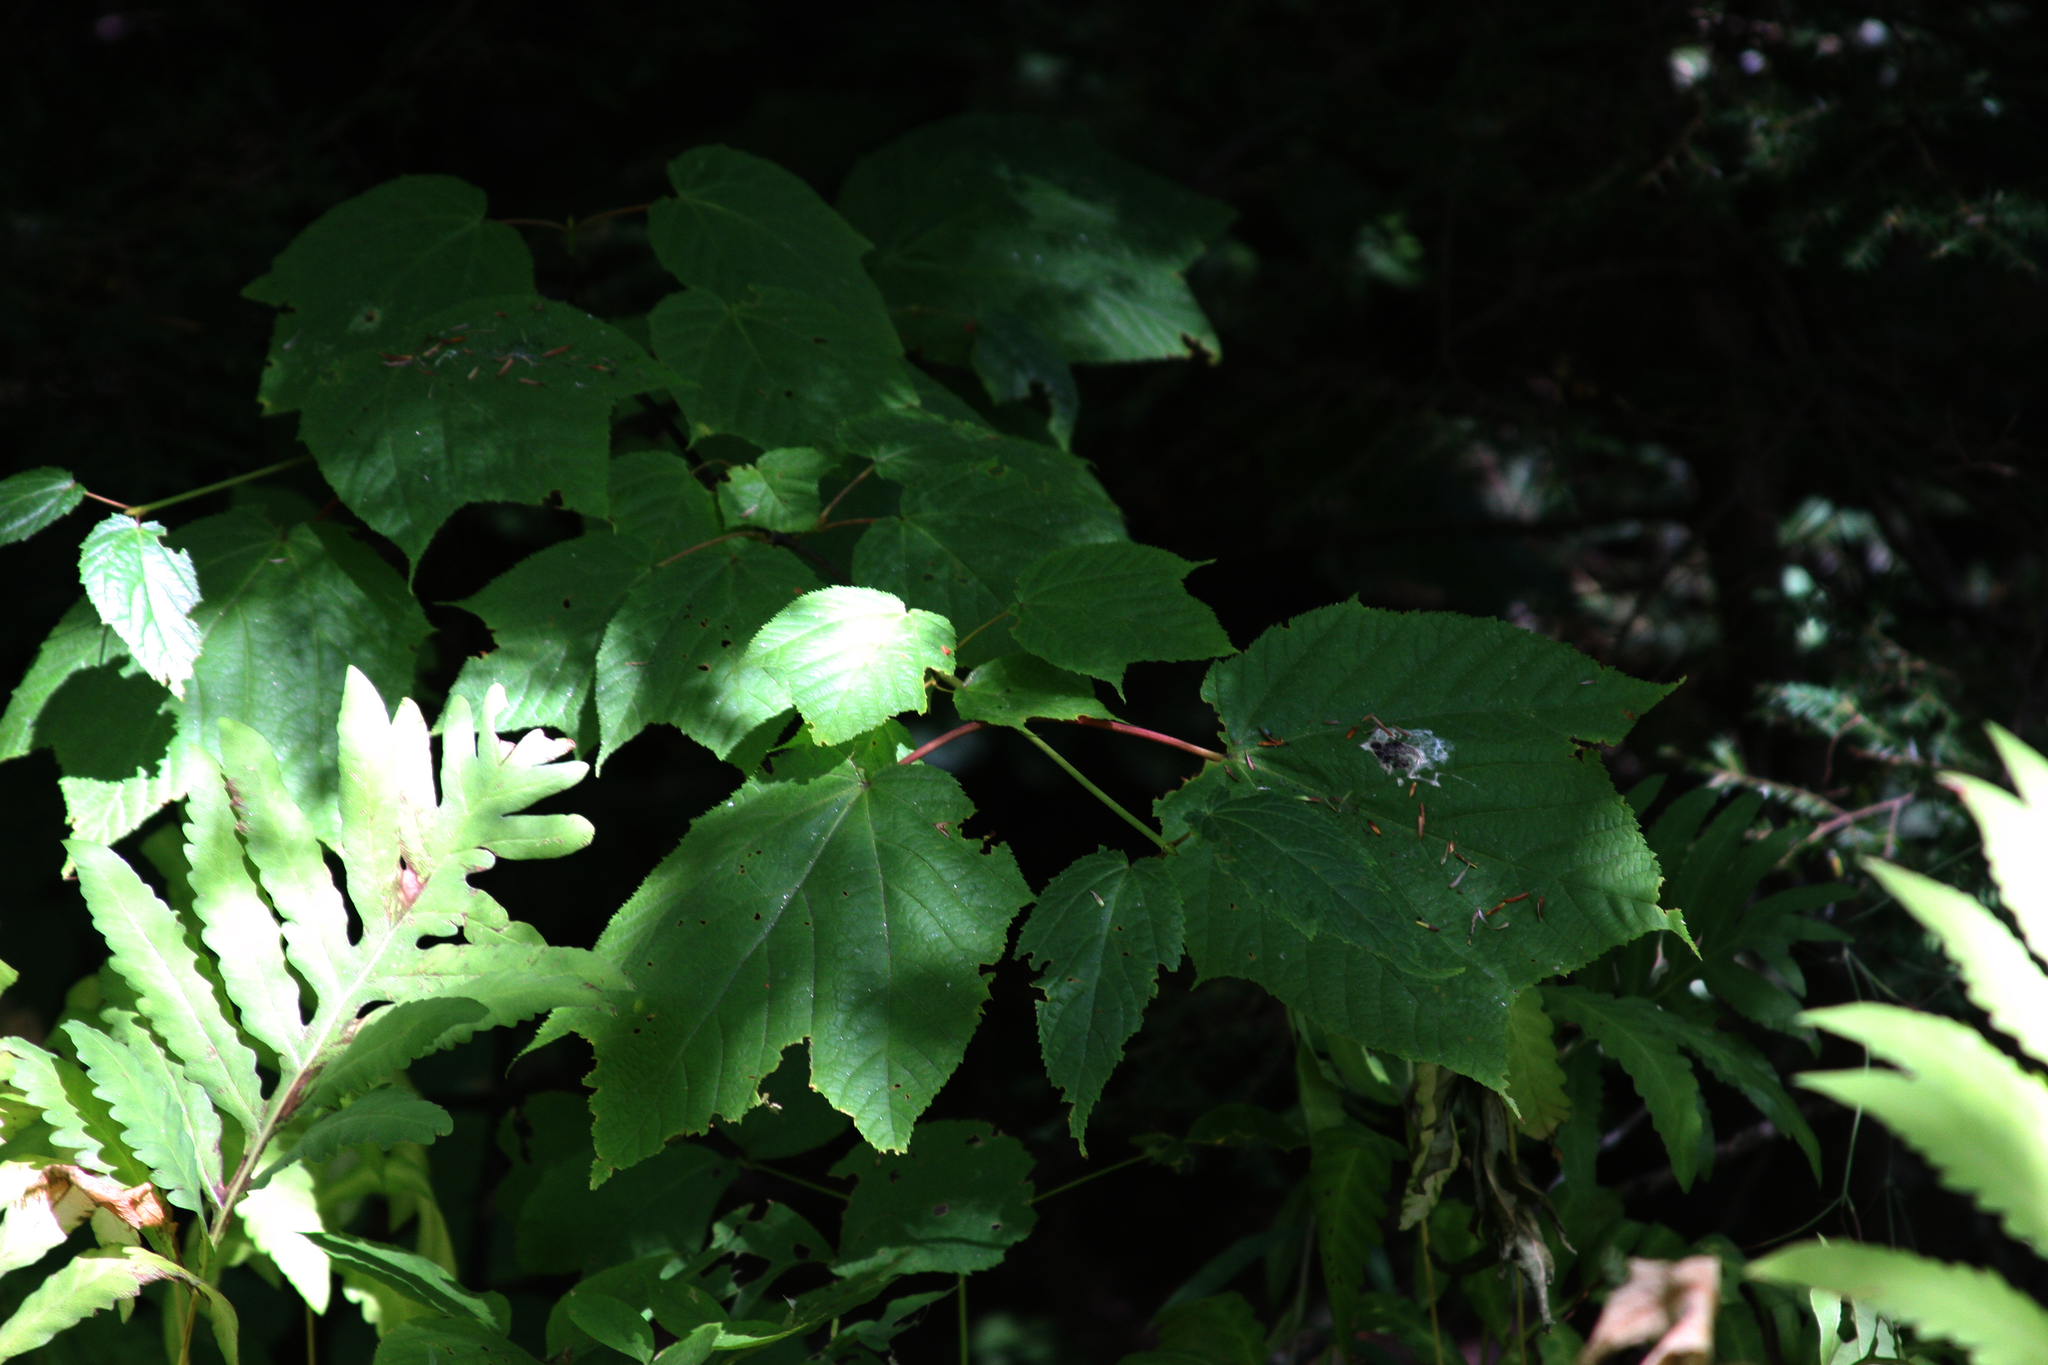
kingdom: Plantae
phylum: Tracheophyta
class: Polypodiopsida
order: Polypodiales
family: Onocleaceae
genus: Onoclea
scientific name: Onoclea sensibilis
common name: Sensitive fern
